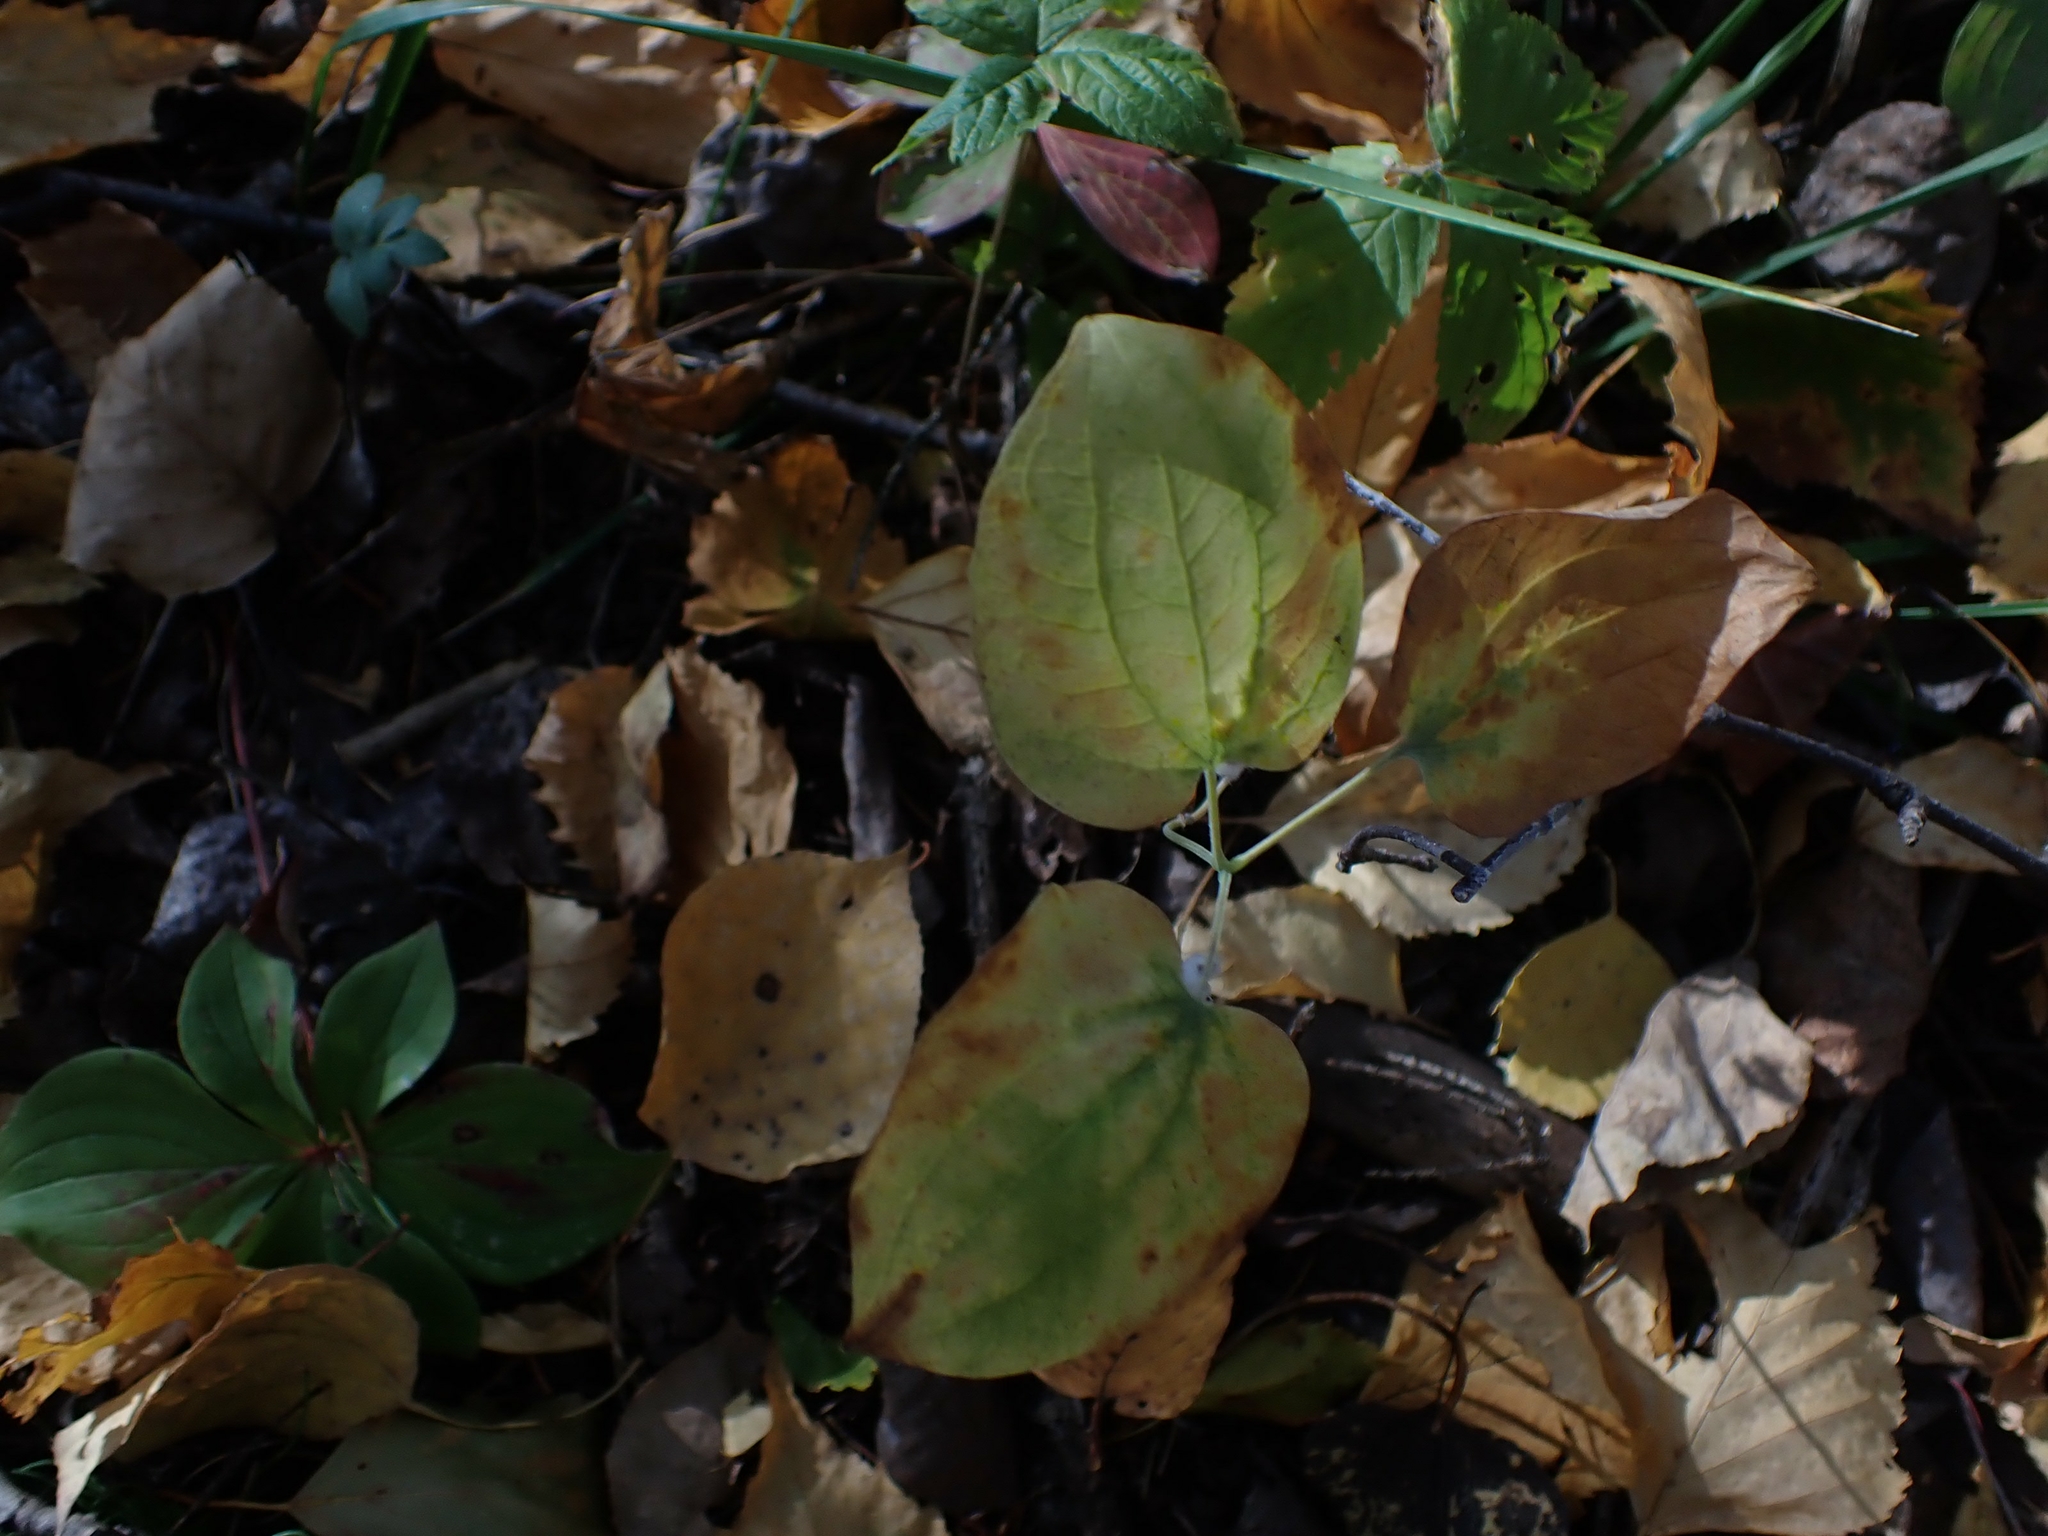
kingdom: Plantae
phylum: Tracheophyta
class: Liliopsida
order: Liliales
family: Smilacaceae
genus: Smilax
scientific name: Smilax lasioneura
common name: Blue ridge carrionflower
